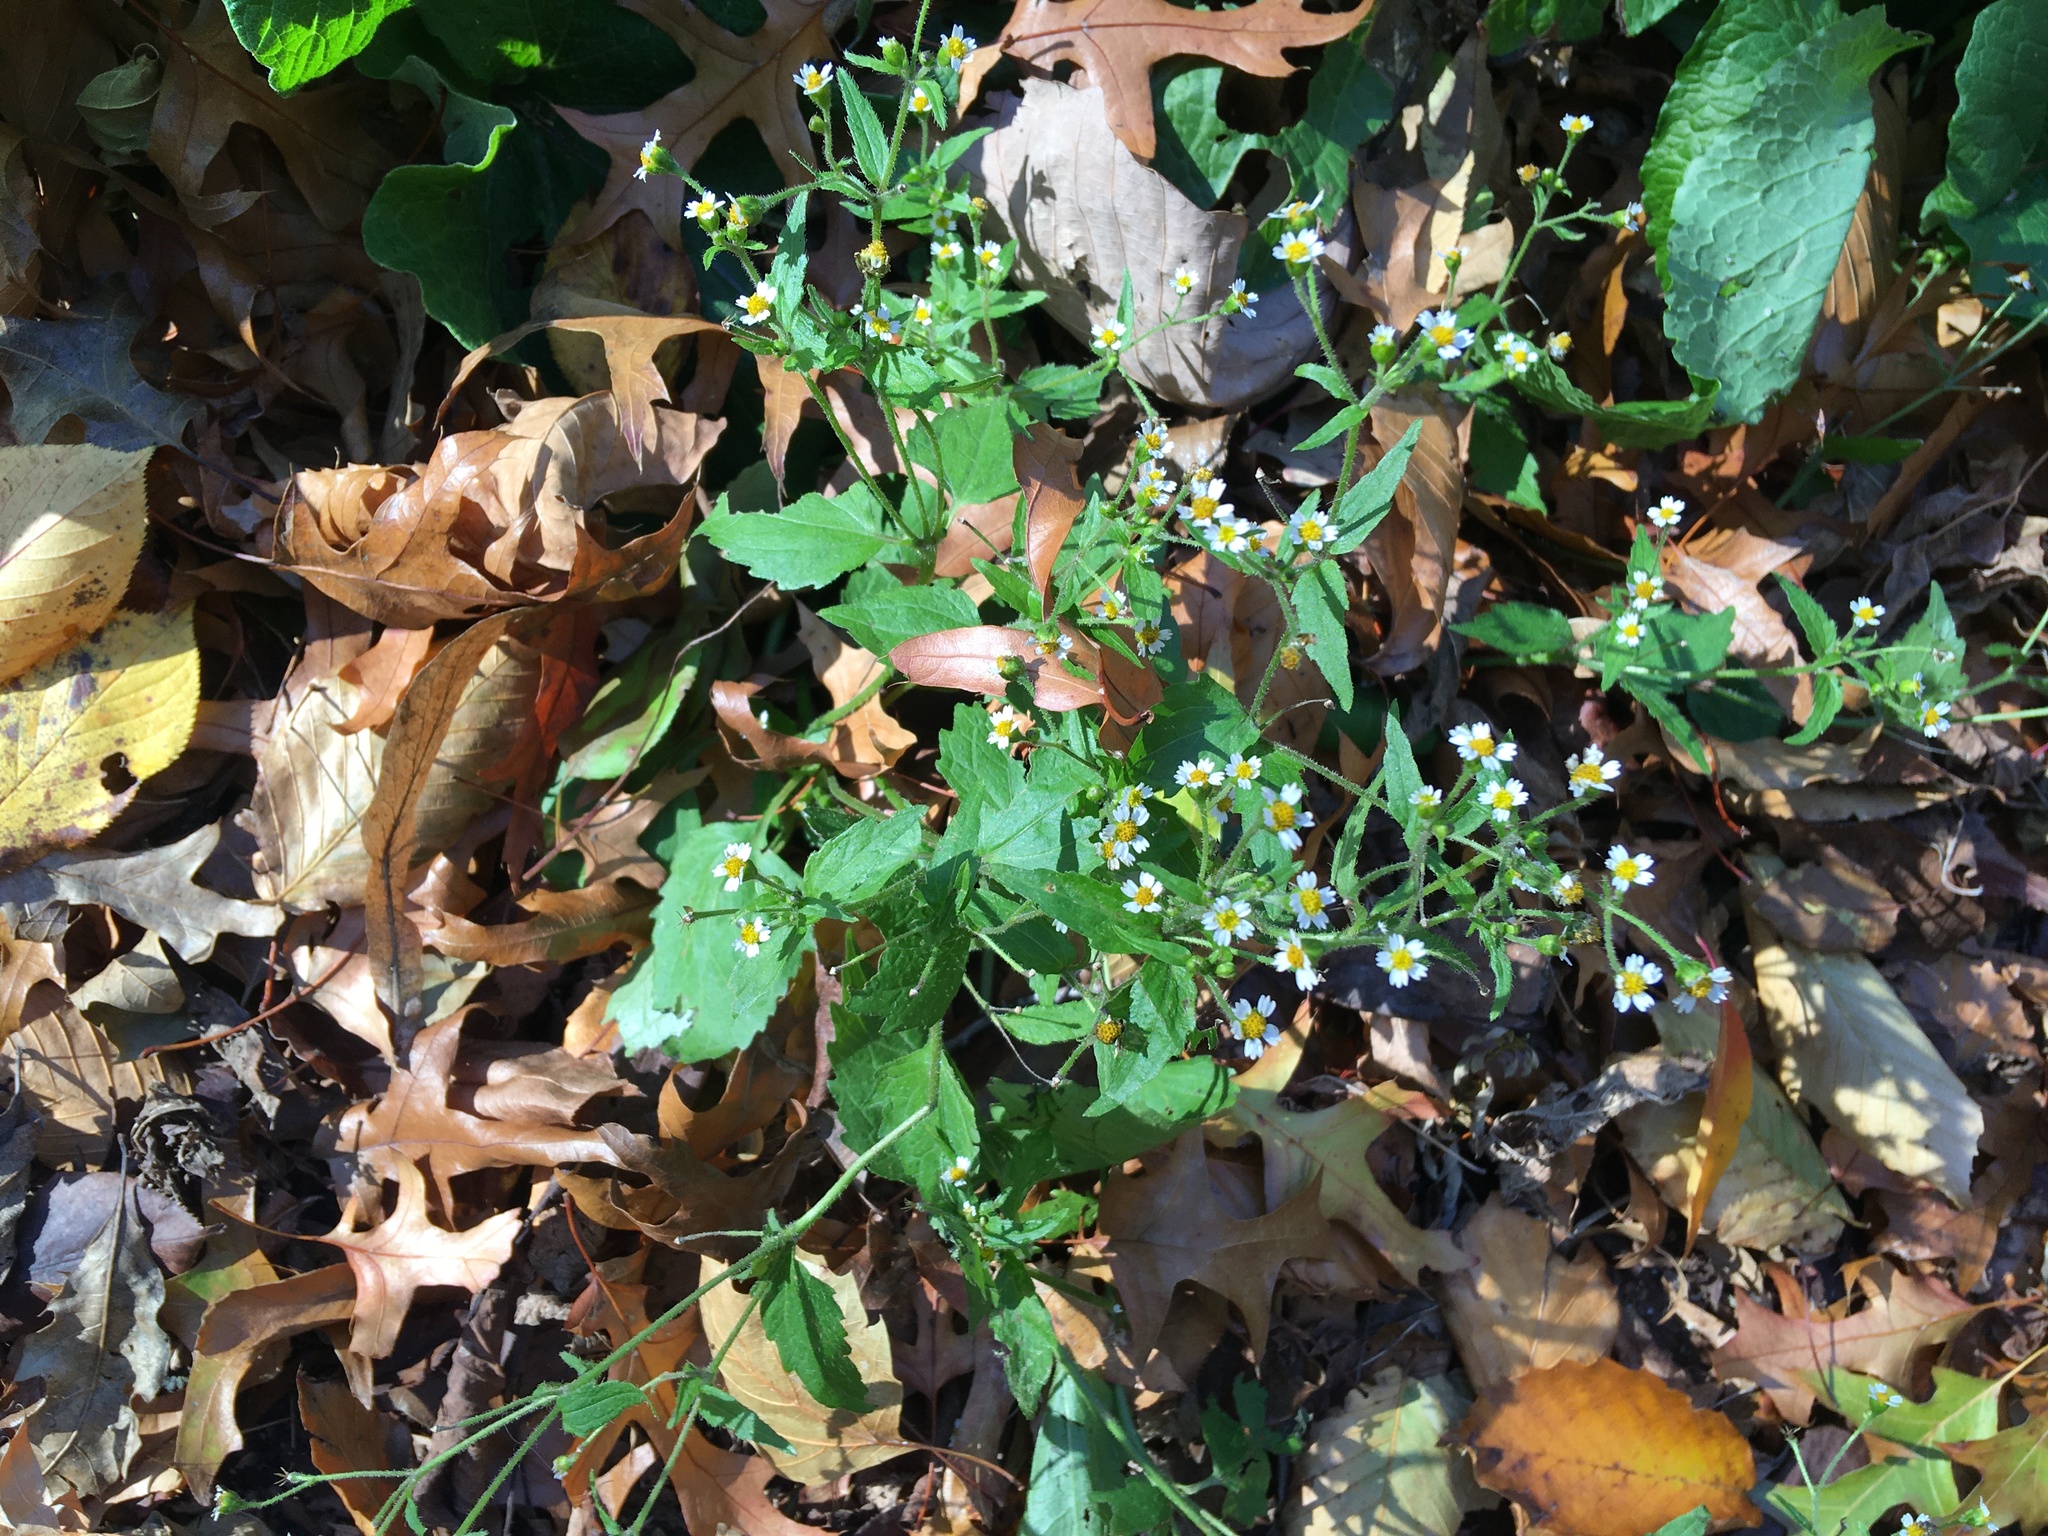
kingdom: Plantae
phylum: Tracheophyta
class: Magnoliopsida
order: Asterales
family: Asteraceae
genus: Galinsoga
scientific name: Galinsoga quadriradiata
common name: Shaggy soldier
